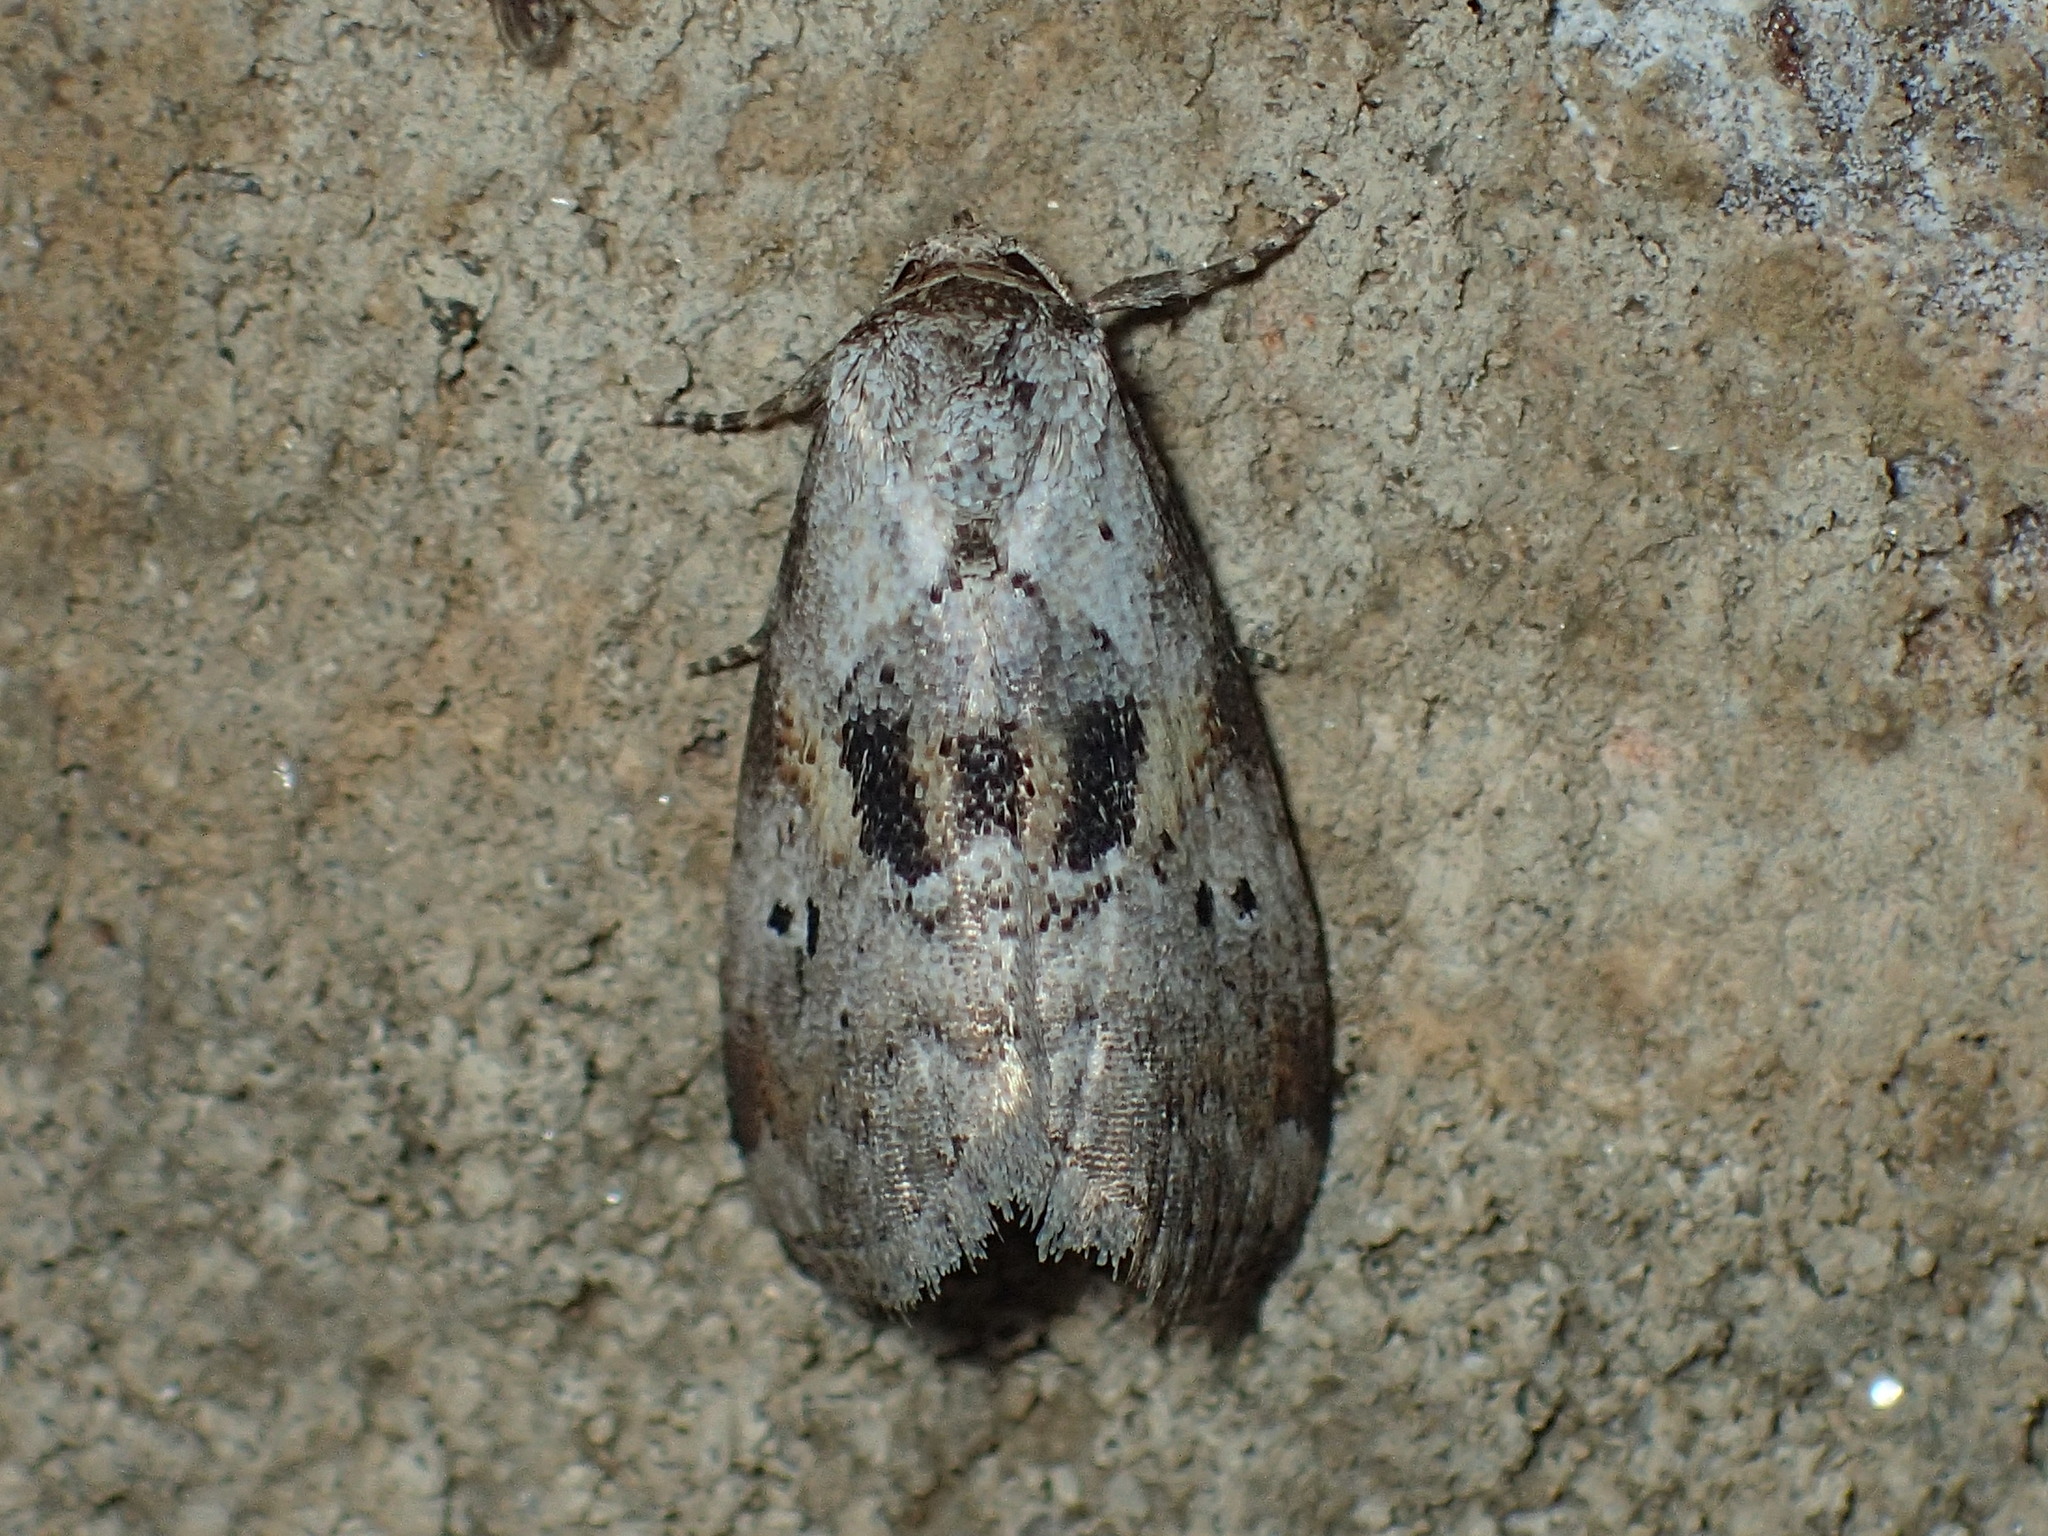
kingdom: Animalia
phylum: Arthropoda
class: Insecta
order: Lepidoptera
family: Erebidae
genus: Hyperstrotia
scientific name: Hyperstrotia secta
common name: Black-patched graylet
